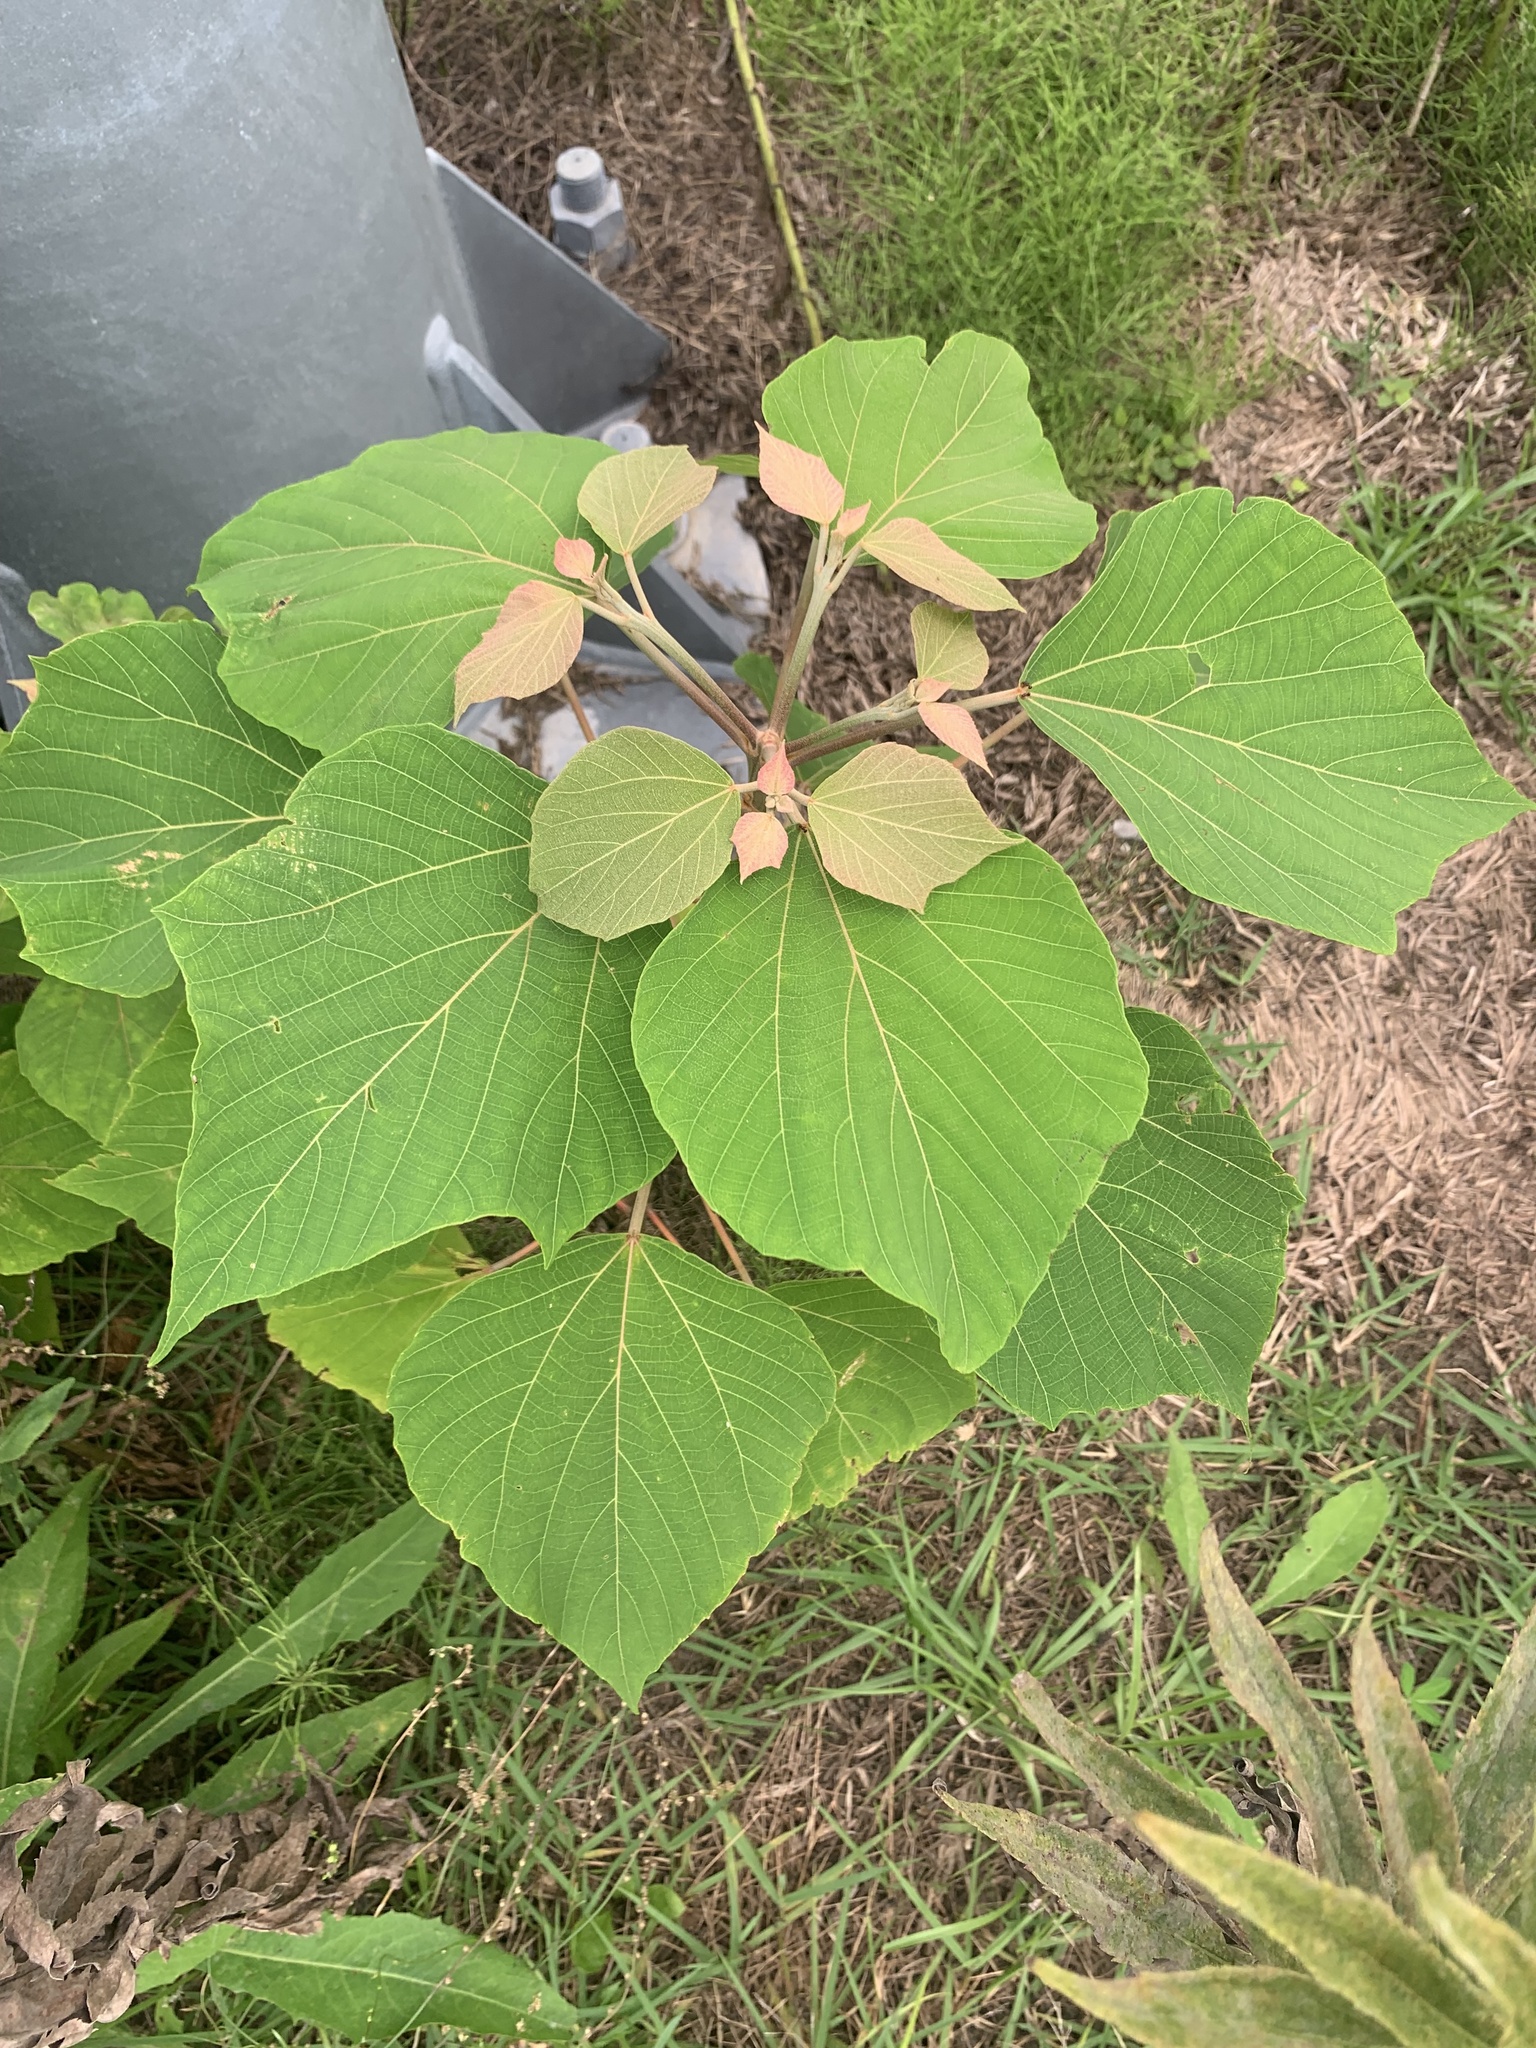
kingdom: Plantae
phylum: Tracheophyta
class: Magnoliopsida
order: Malpighiales
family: Euphorbiaceae
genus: Mallotus
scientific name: Mallotus japonicus
